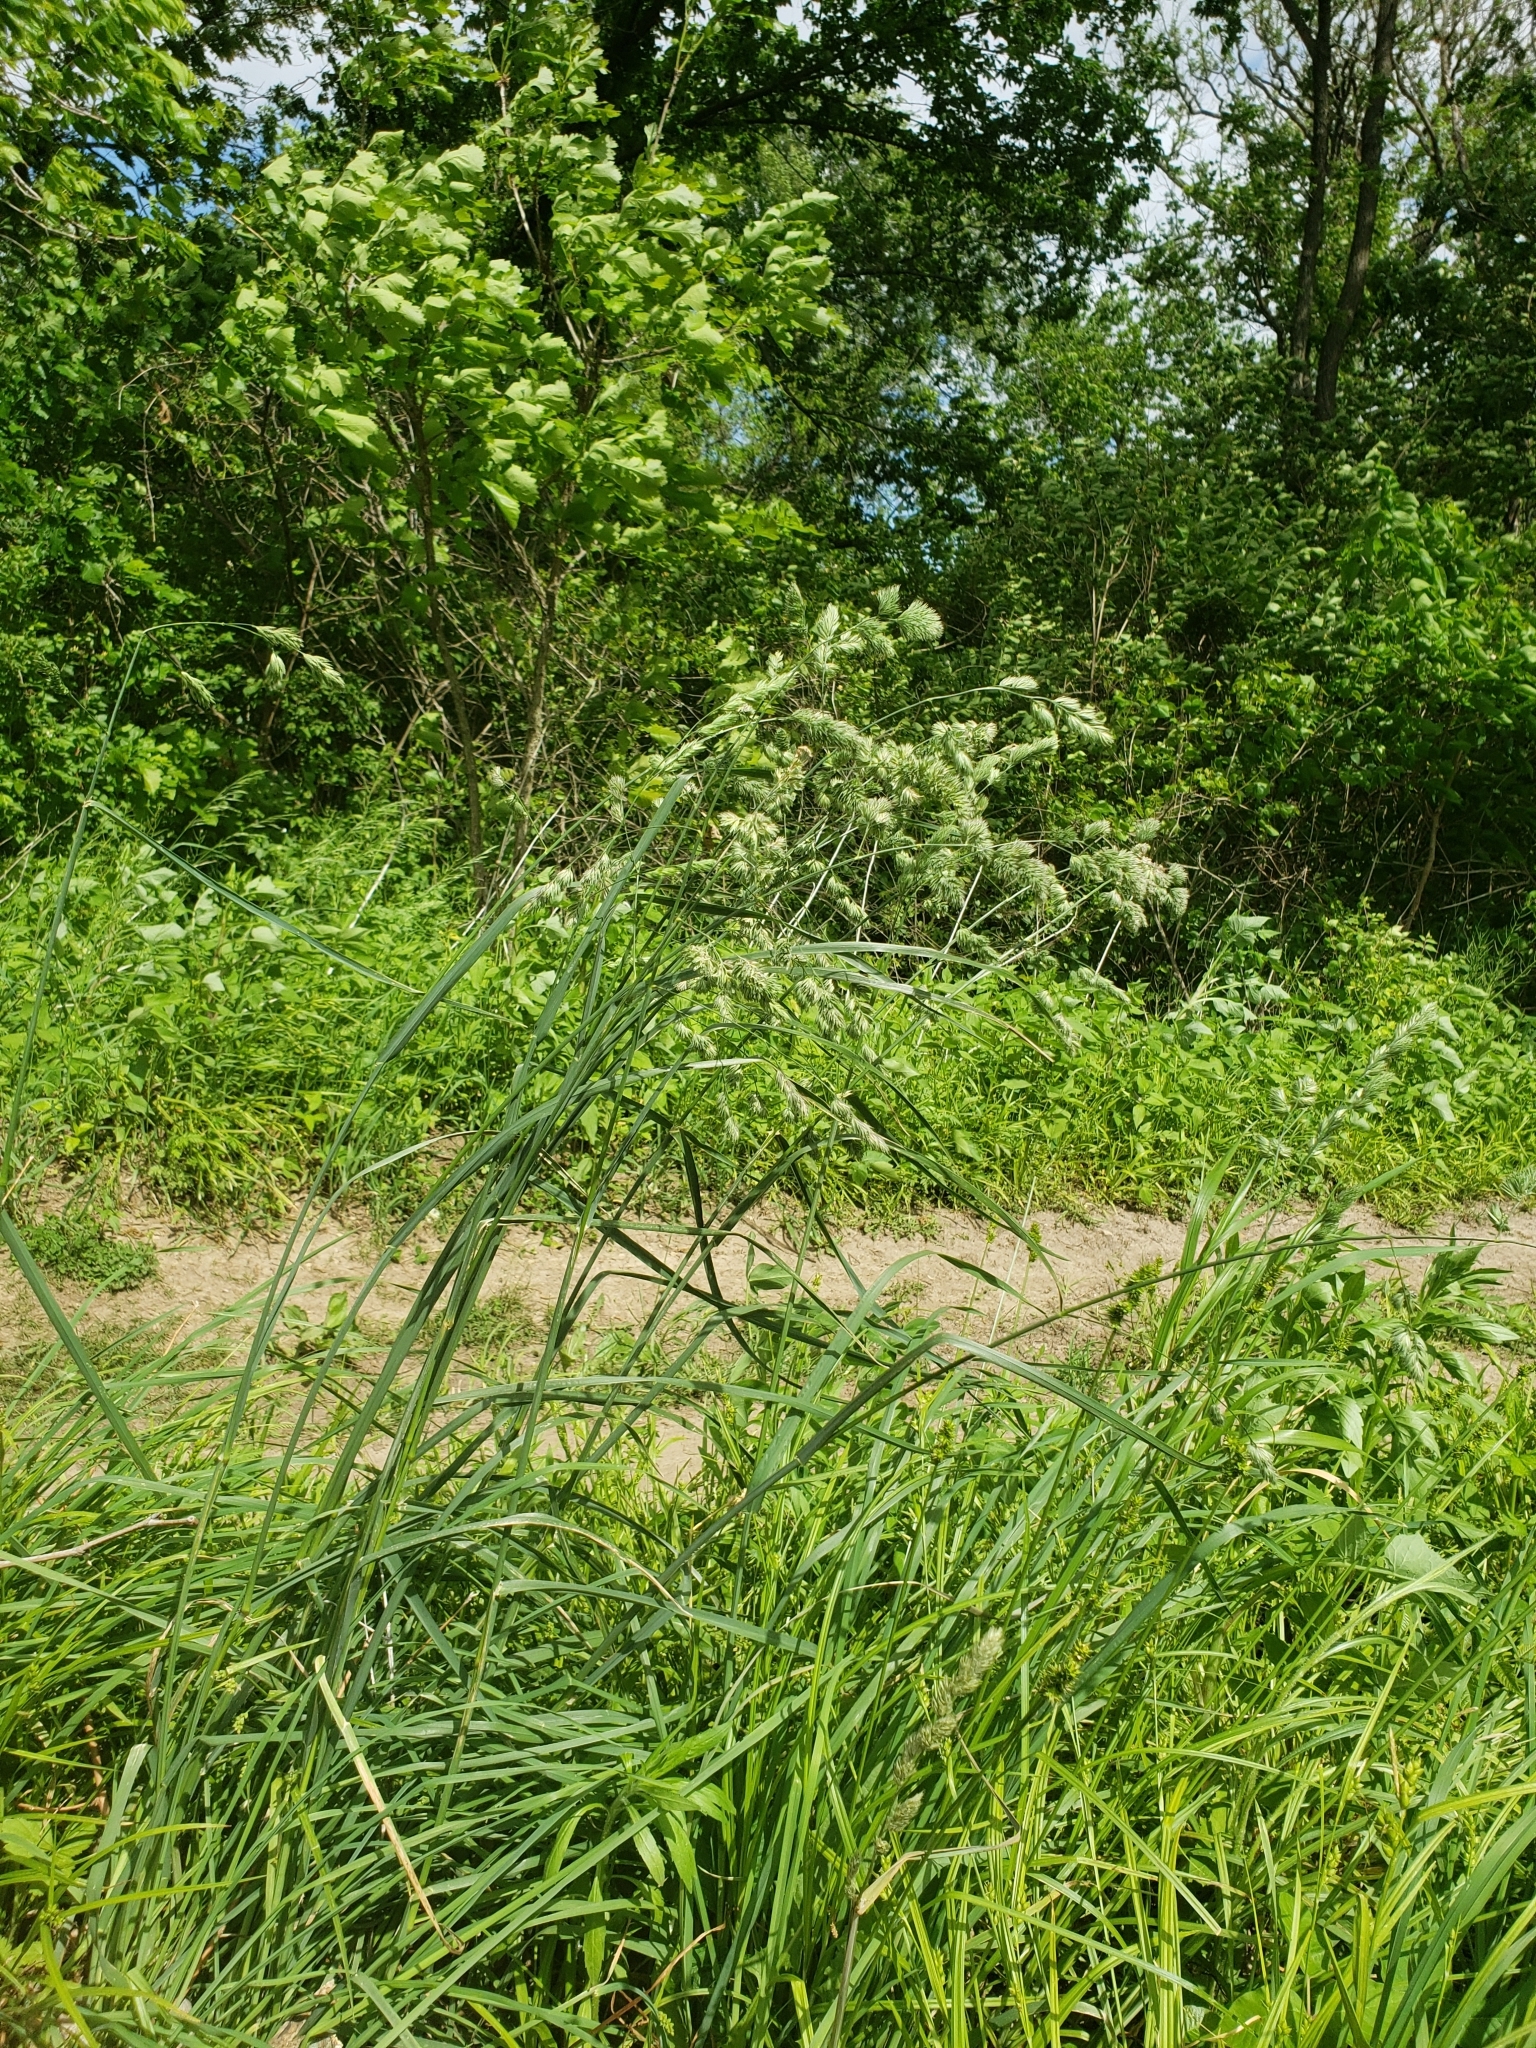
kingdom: Plantae
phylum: Tracheophyta
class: Liliopsida
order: Poales
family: Poaceae
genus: Dactylis
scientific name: Dactylis glomerata
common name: Orchardgrass
